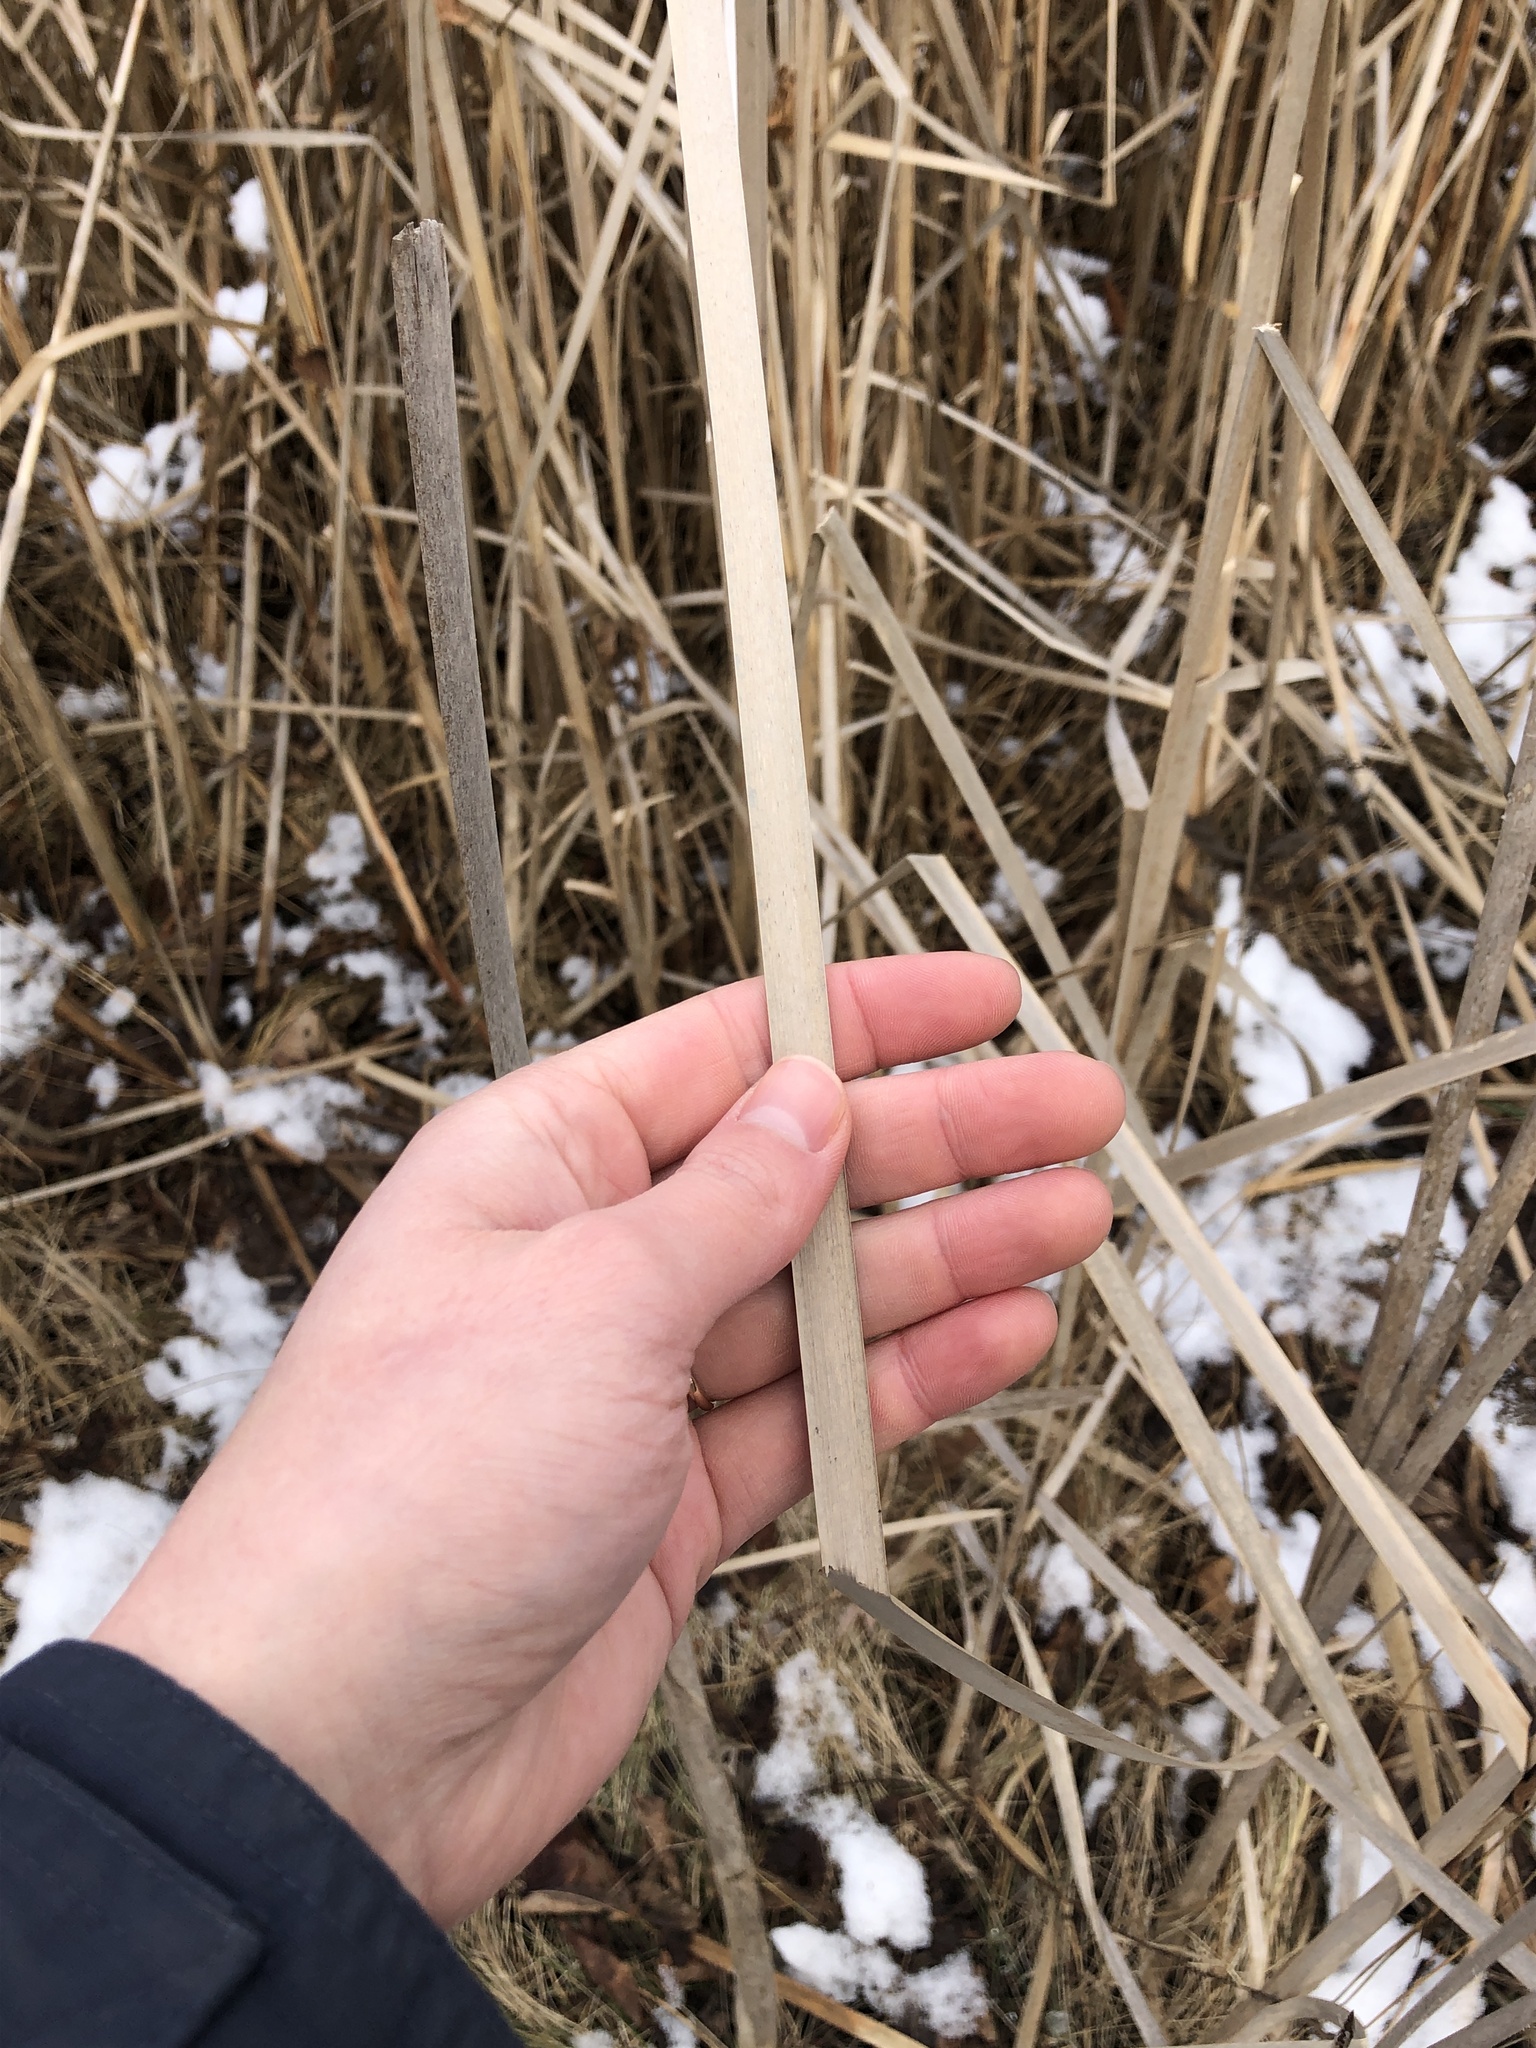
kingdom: Plantae
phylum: Tracheophyta
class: Liliopsida
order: Poales
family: Typhaceae
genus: Typha
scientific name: Typha latifolia
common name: Broadleaf cattail
